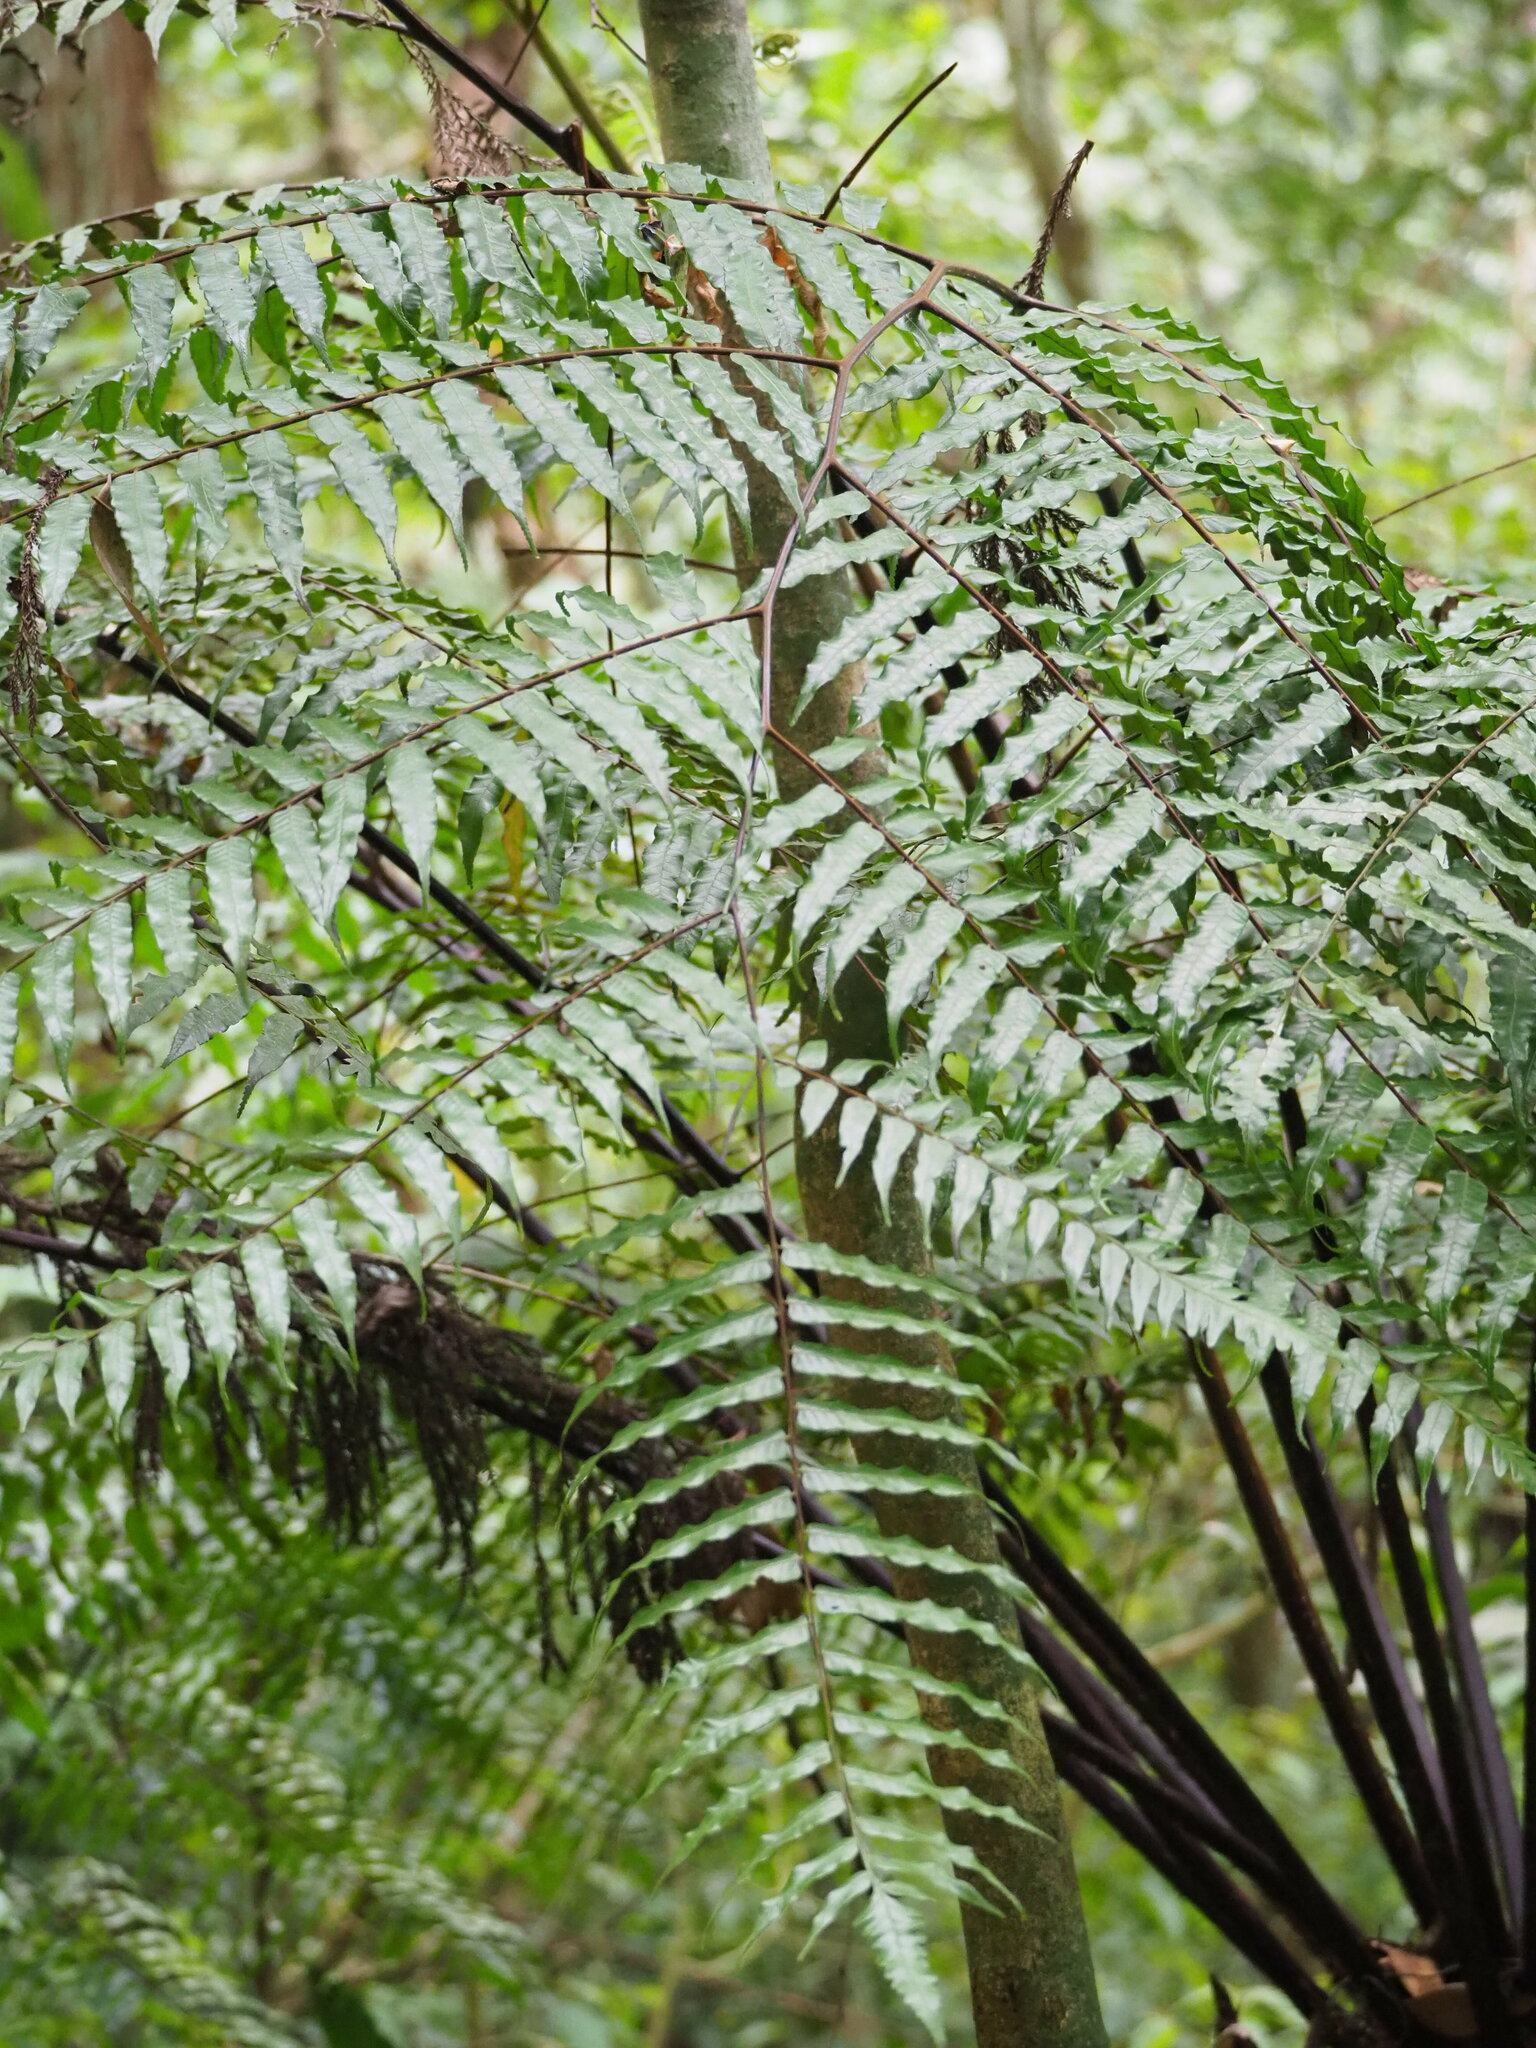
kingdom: Plantae
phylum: Tracheophyta
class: Polypodiopsida
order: Cyatheales
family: Cyatheaceae
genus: Gymnosphaera
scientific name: Gymnosphaera podophylla
